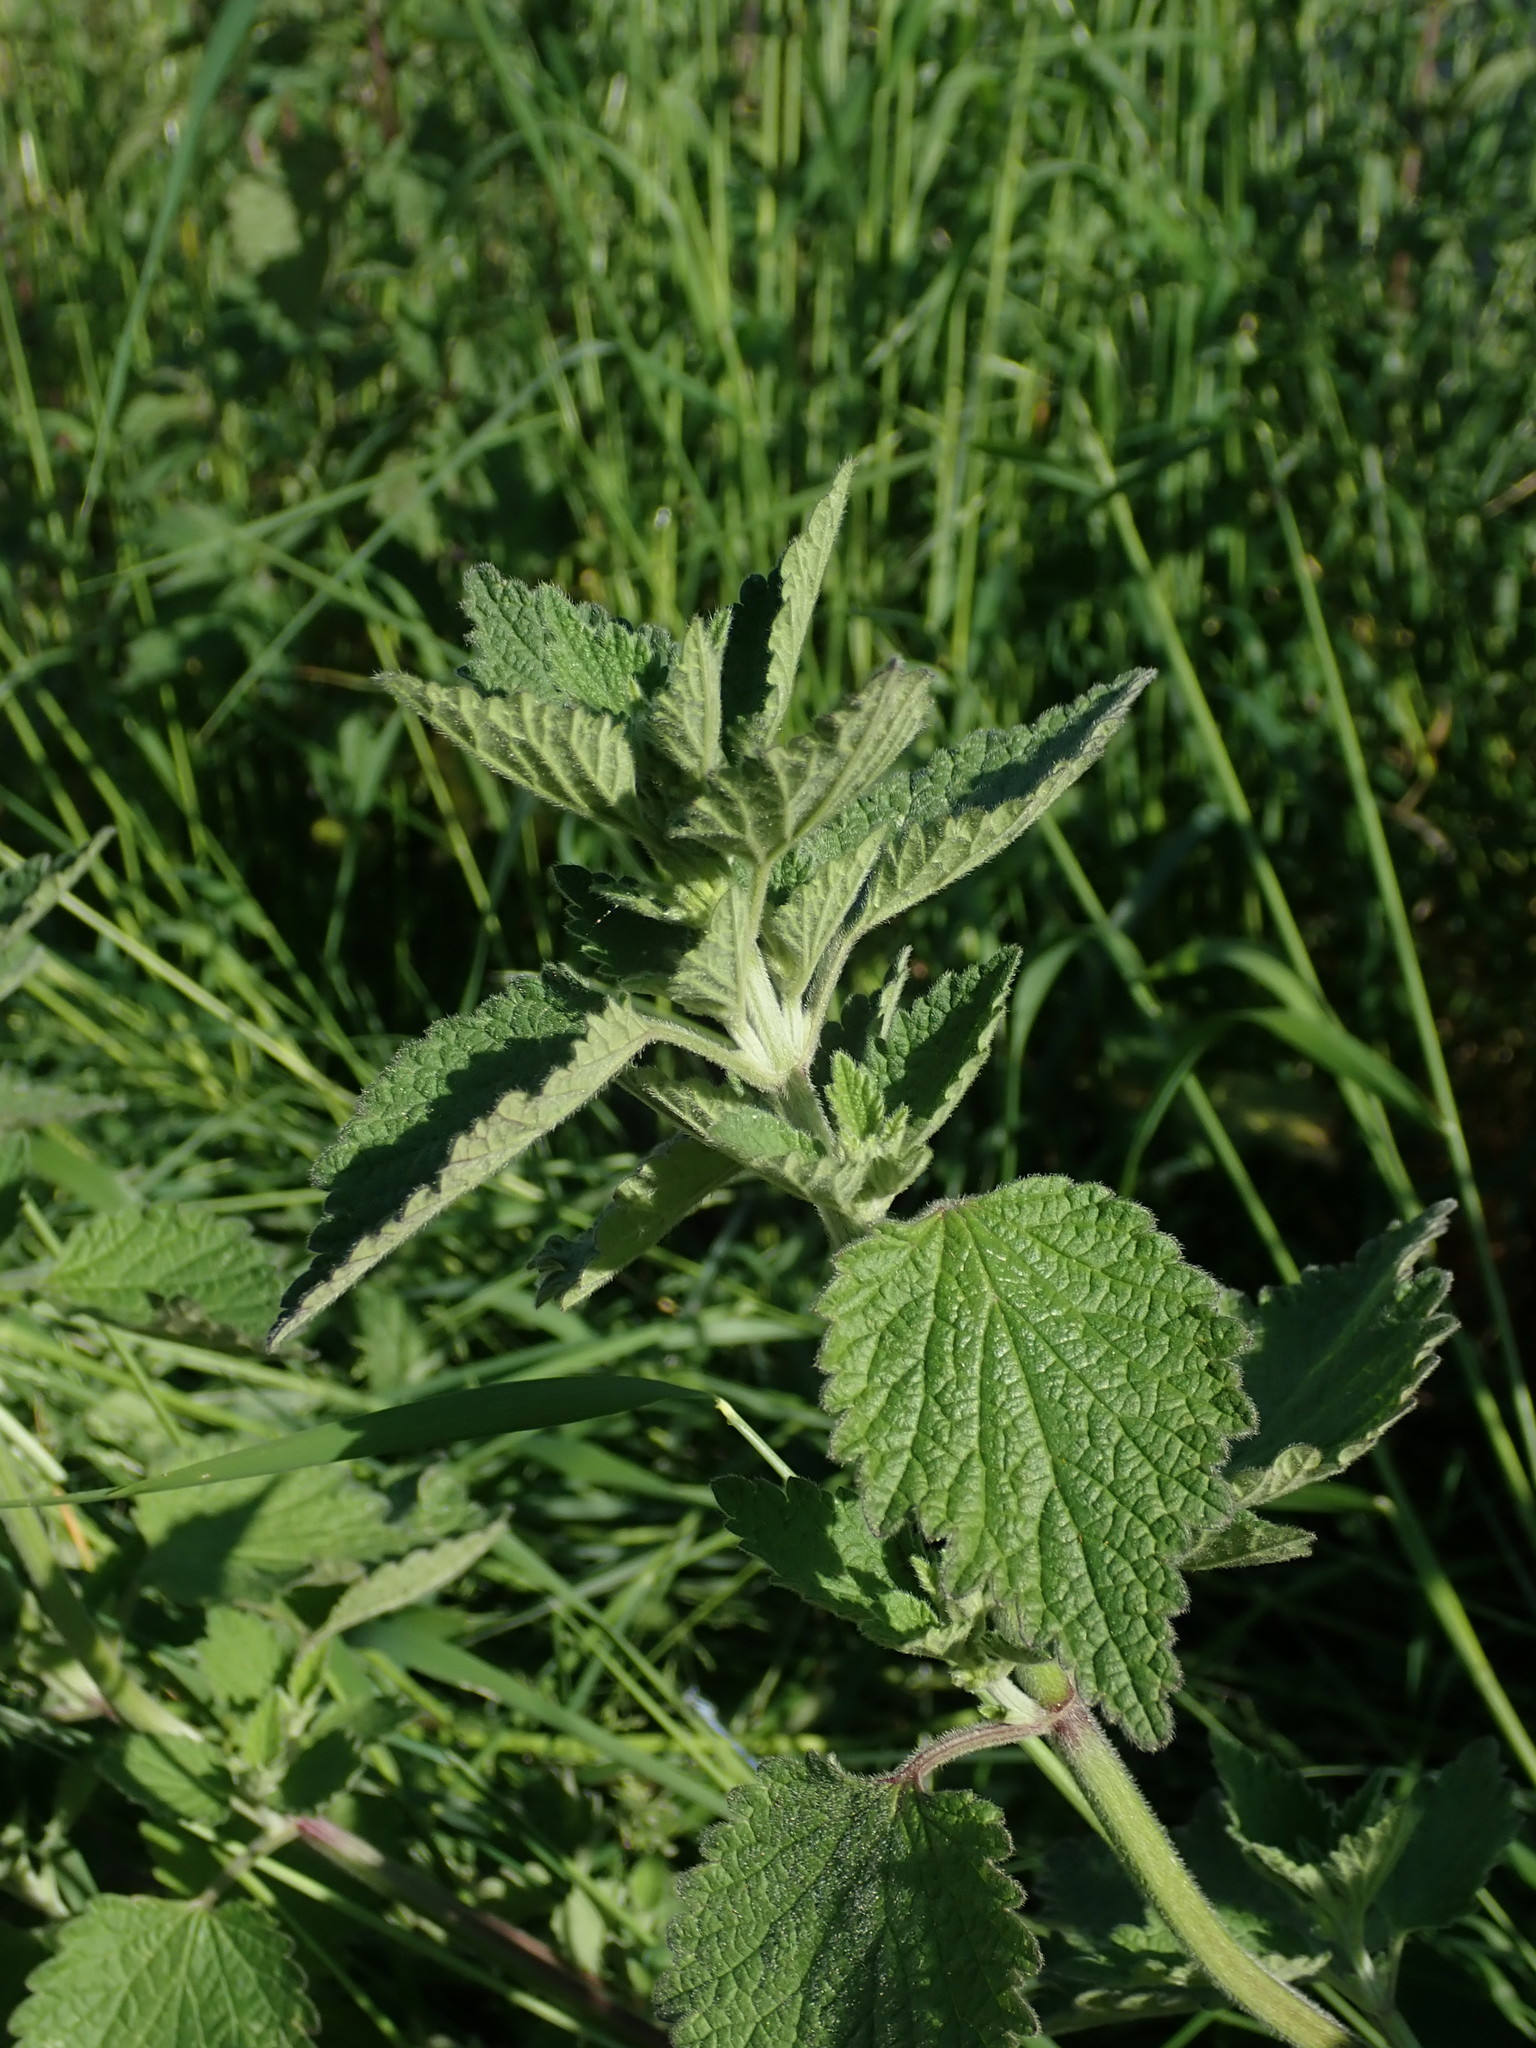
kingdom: Plantae
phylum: Tracheophyta
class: Magnoliopsida
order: Lamiales
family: Lamiaceae
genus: Ballota
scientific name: Ballota nigra
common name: Black horehound
